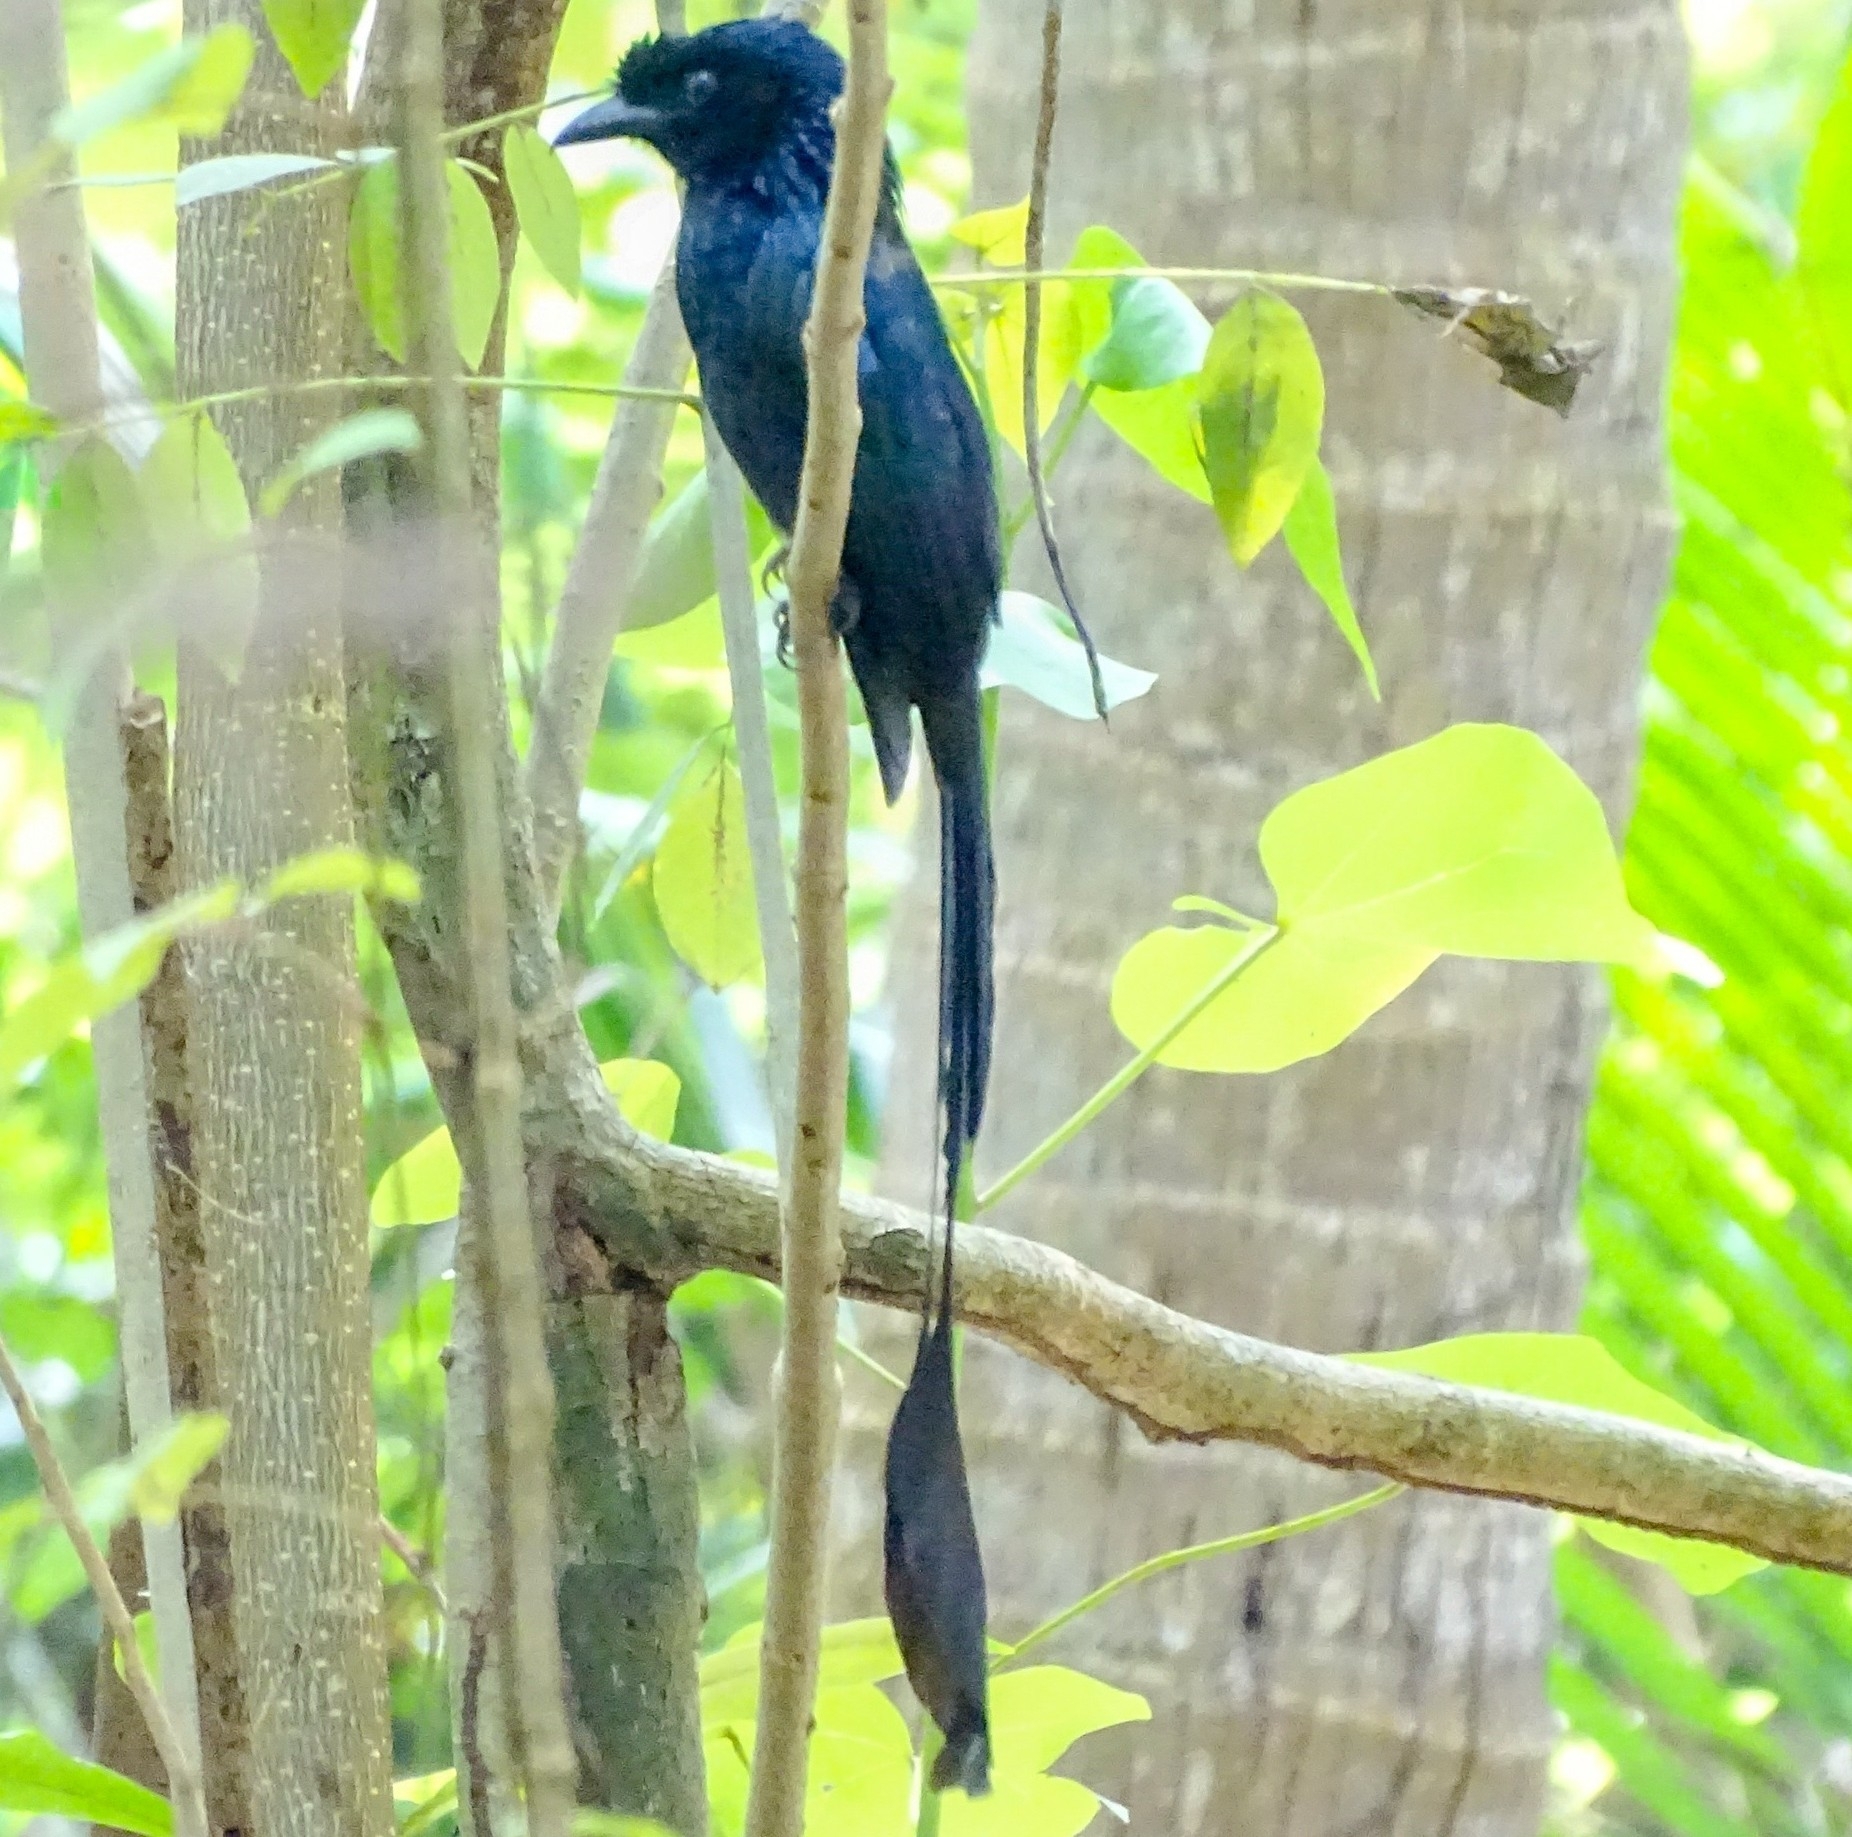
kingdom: Animalia
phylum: Chordata
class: Aves
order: Passeriformes
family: Dicruridae
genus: Dicrurus
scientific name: Dicrurus paradiseus
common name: Greater racket-tailed drongo
